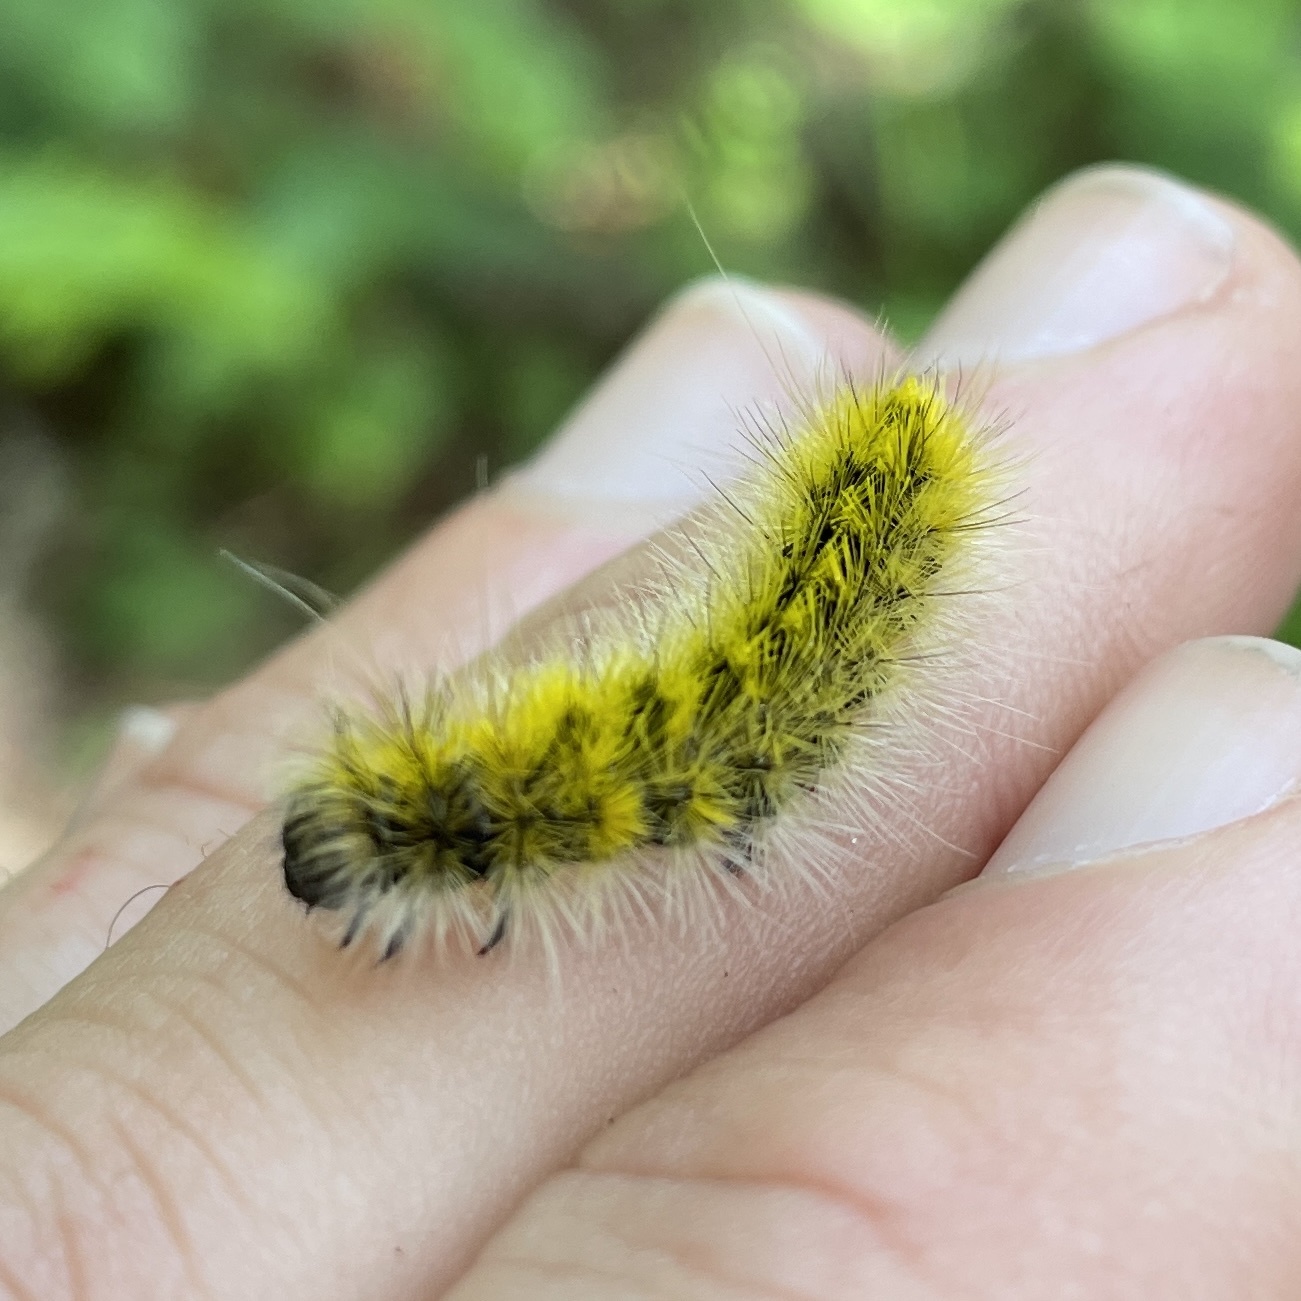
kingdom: Animalia
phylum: Arthropoda
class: Insecta
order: Lepidoptera
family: Erebidae
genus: Lophocampa
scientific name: Lophocampa argentata
